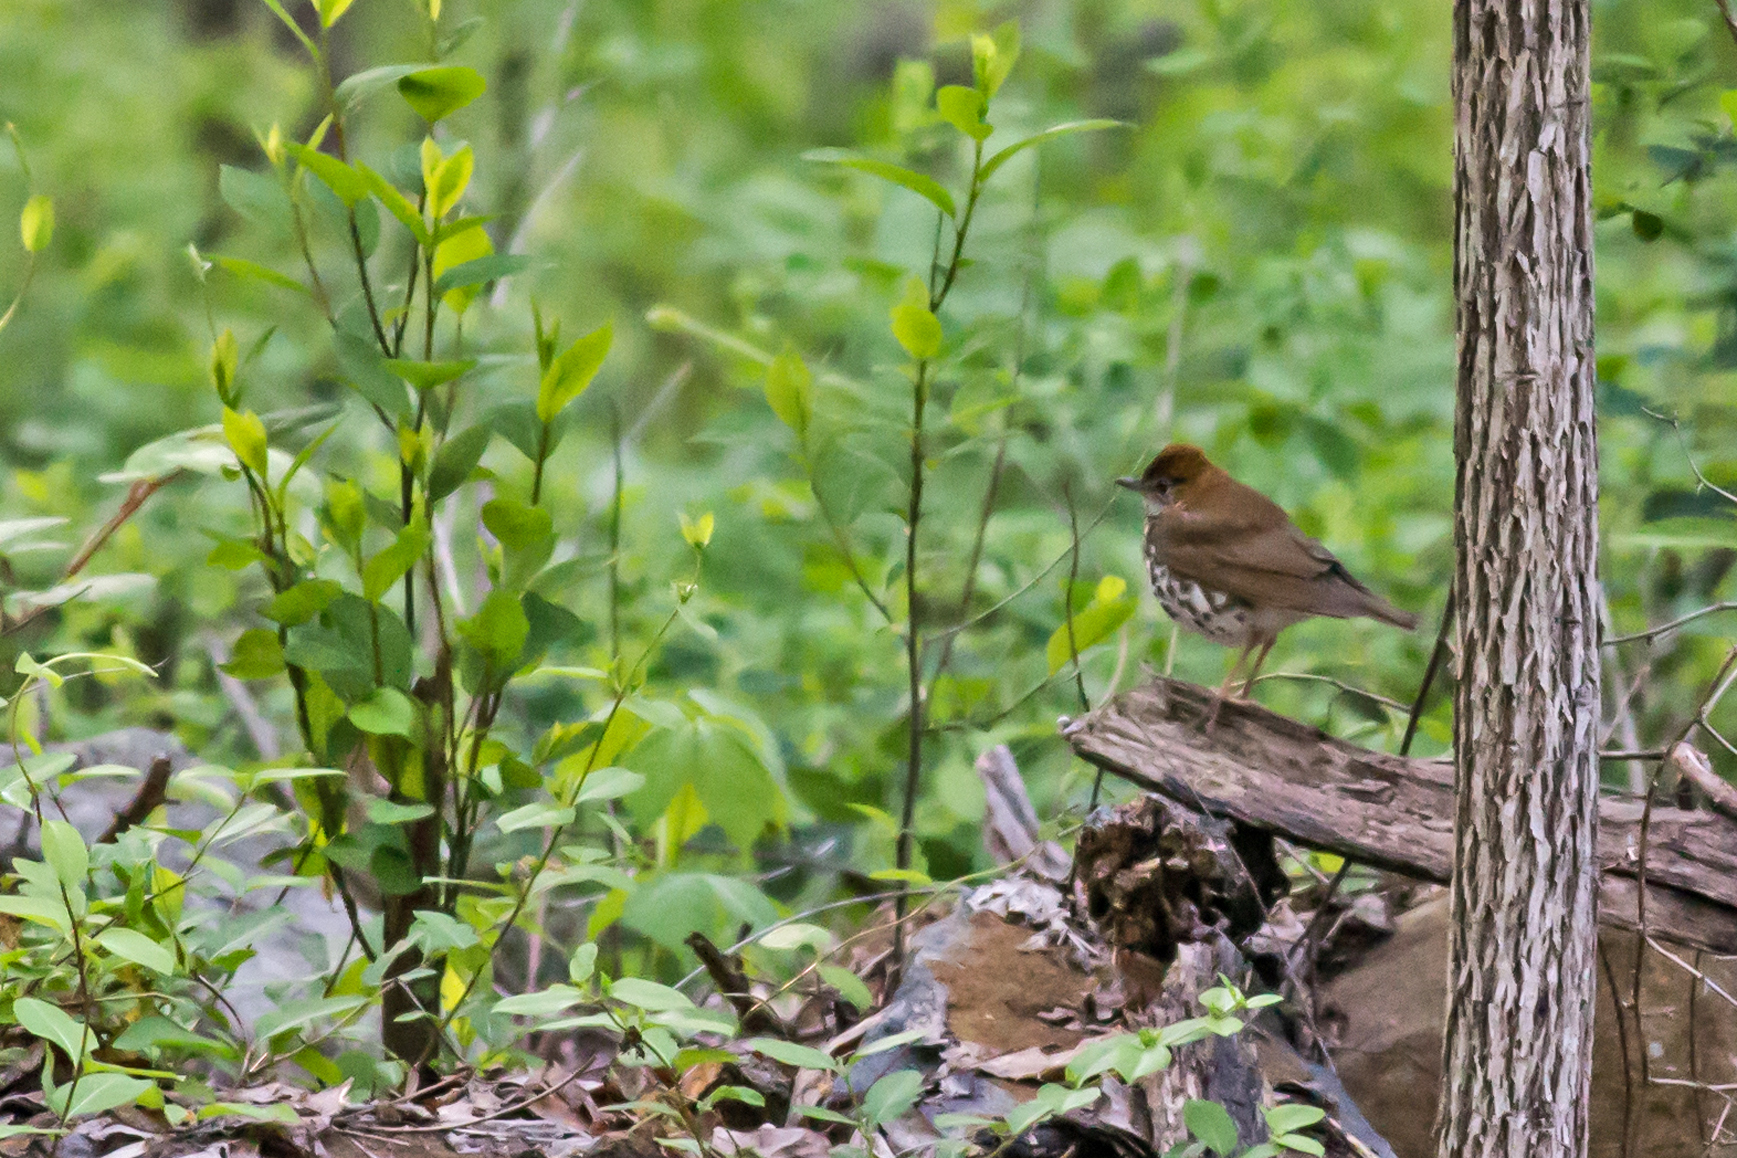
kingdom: Animalia
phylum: Chordata
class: Aves
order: Passeriformes
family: Turdidae
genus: Hylocichla
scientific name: Hylocichla mustelina
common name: Wood thrush
